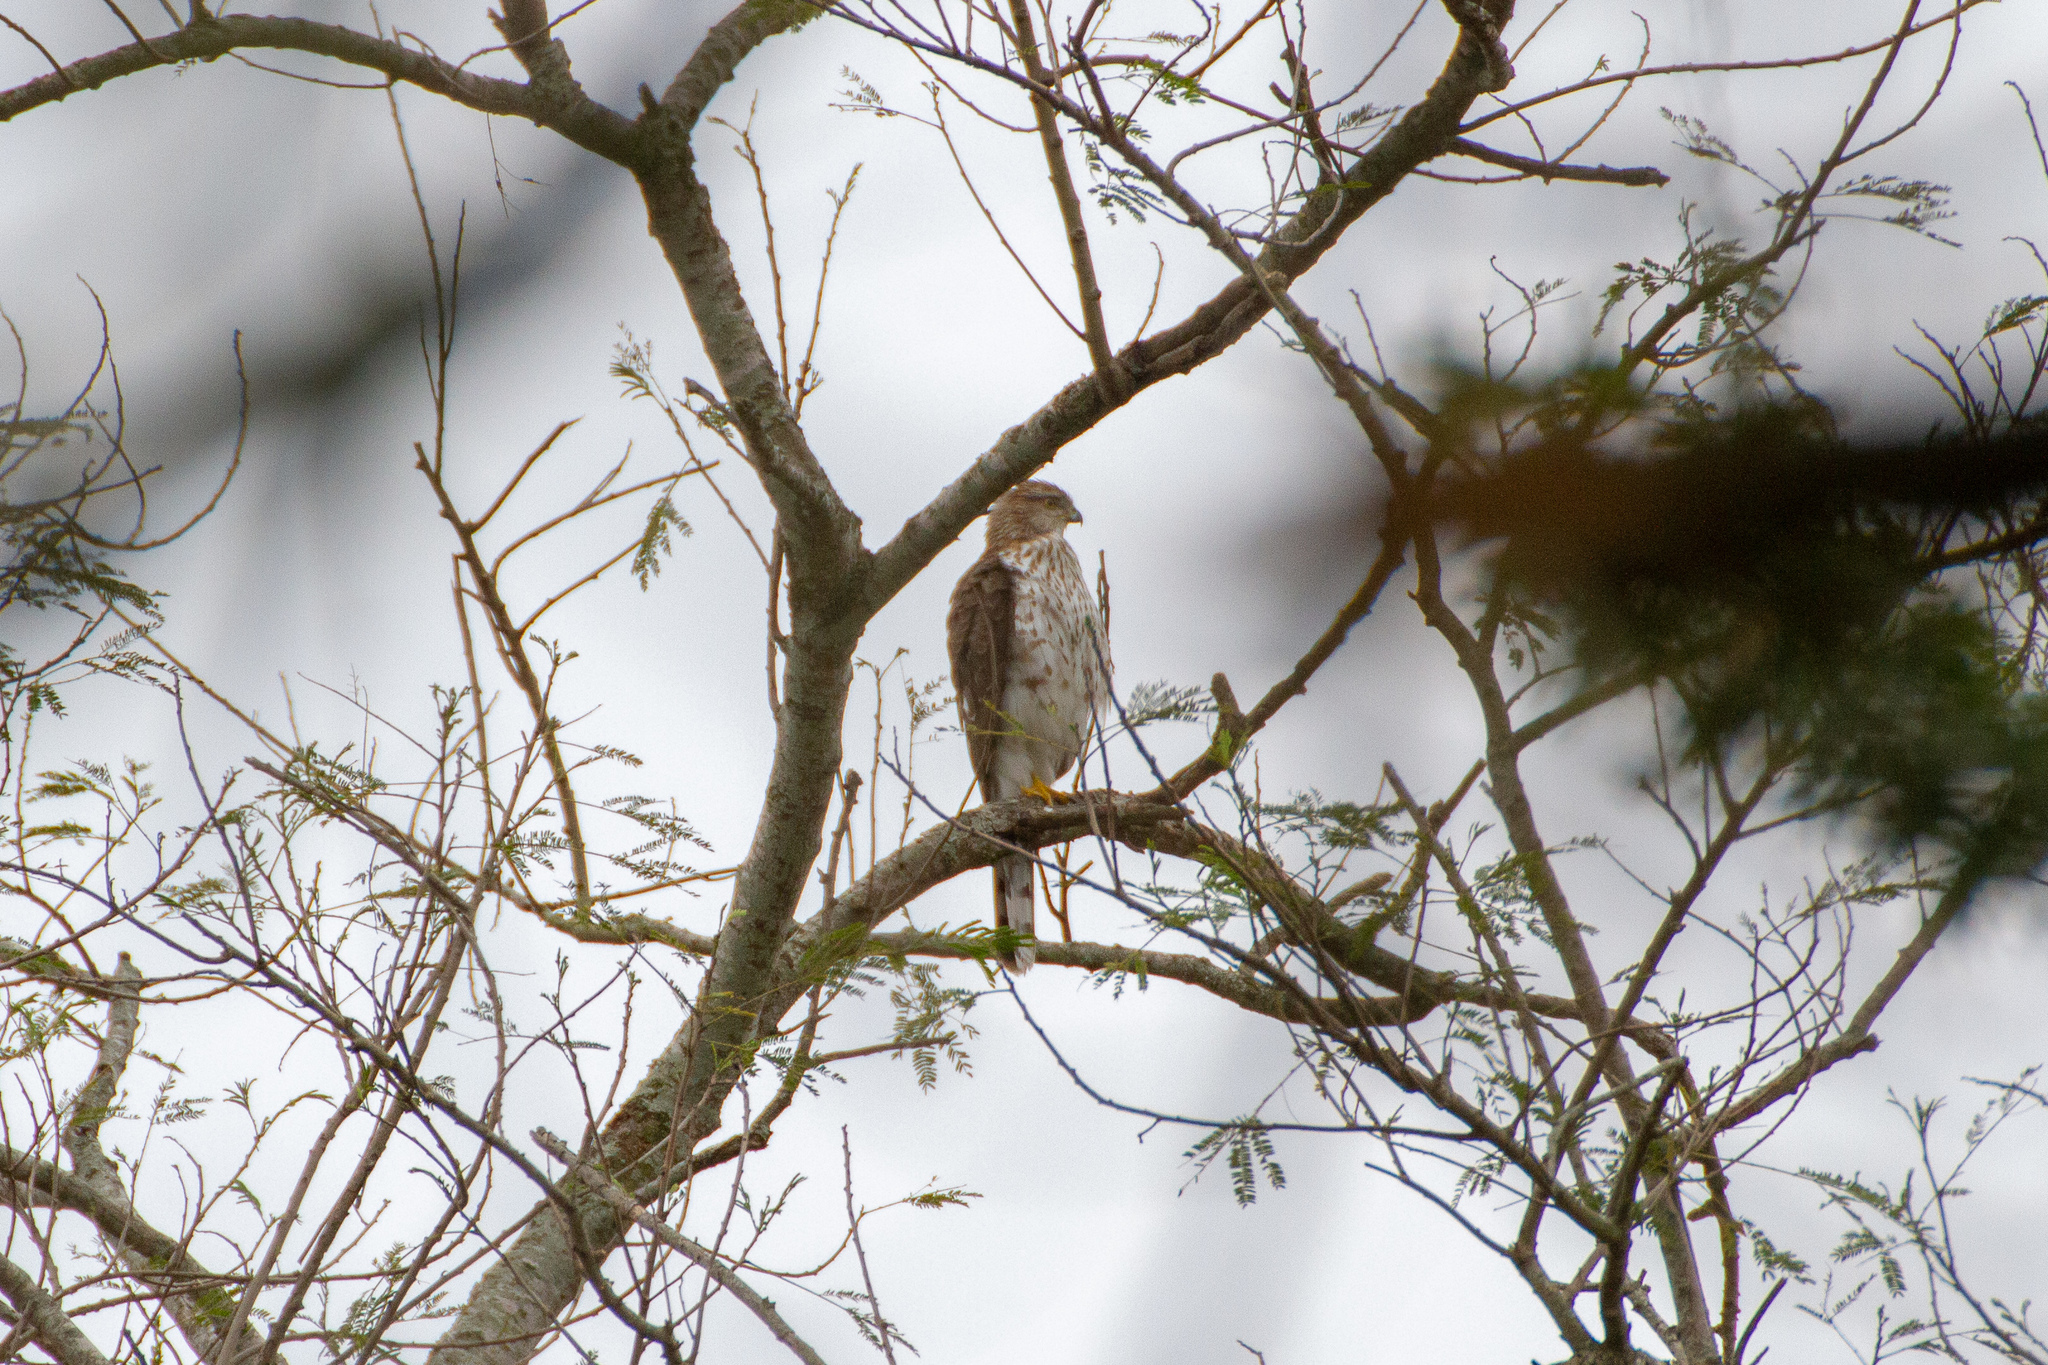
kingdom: Animalia
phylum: Chordata
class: Aves
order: Accipitriformes
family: Accipitridae
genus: Accipiter
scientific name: Accipiter cooperii
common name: Cooper's hawk
